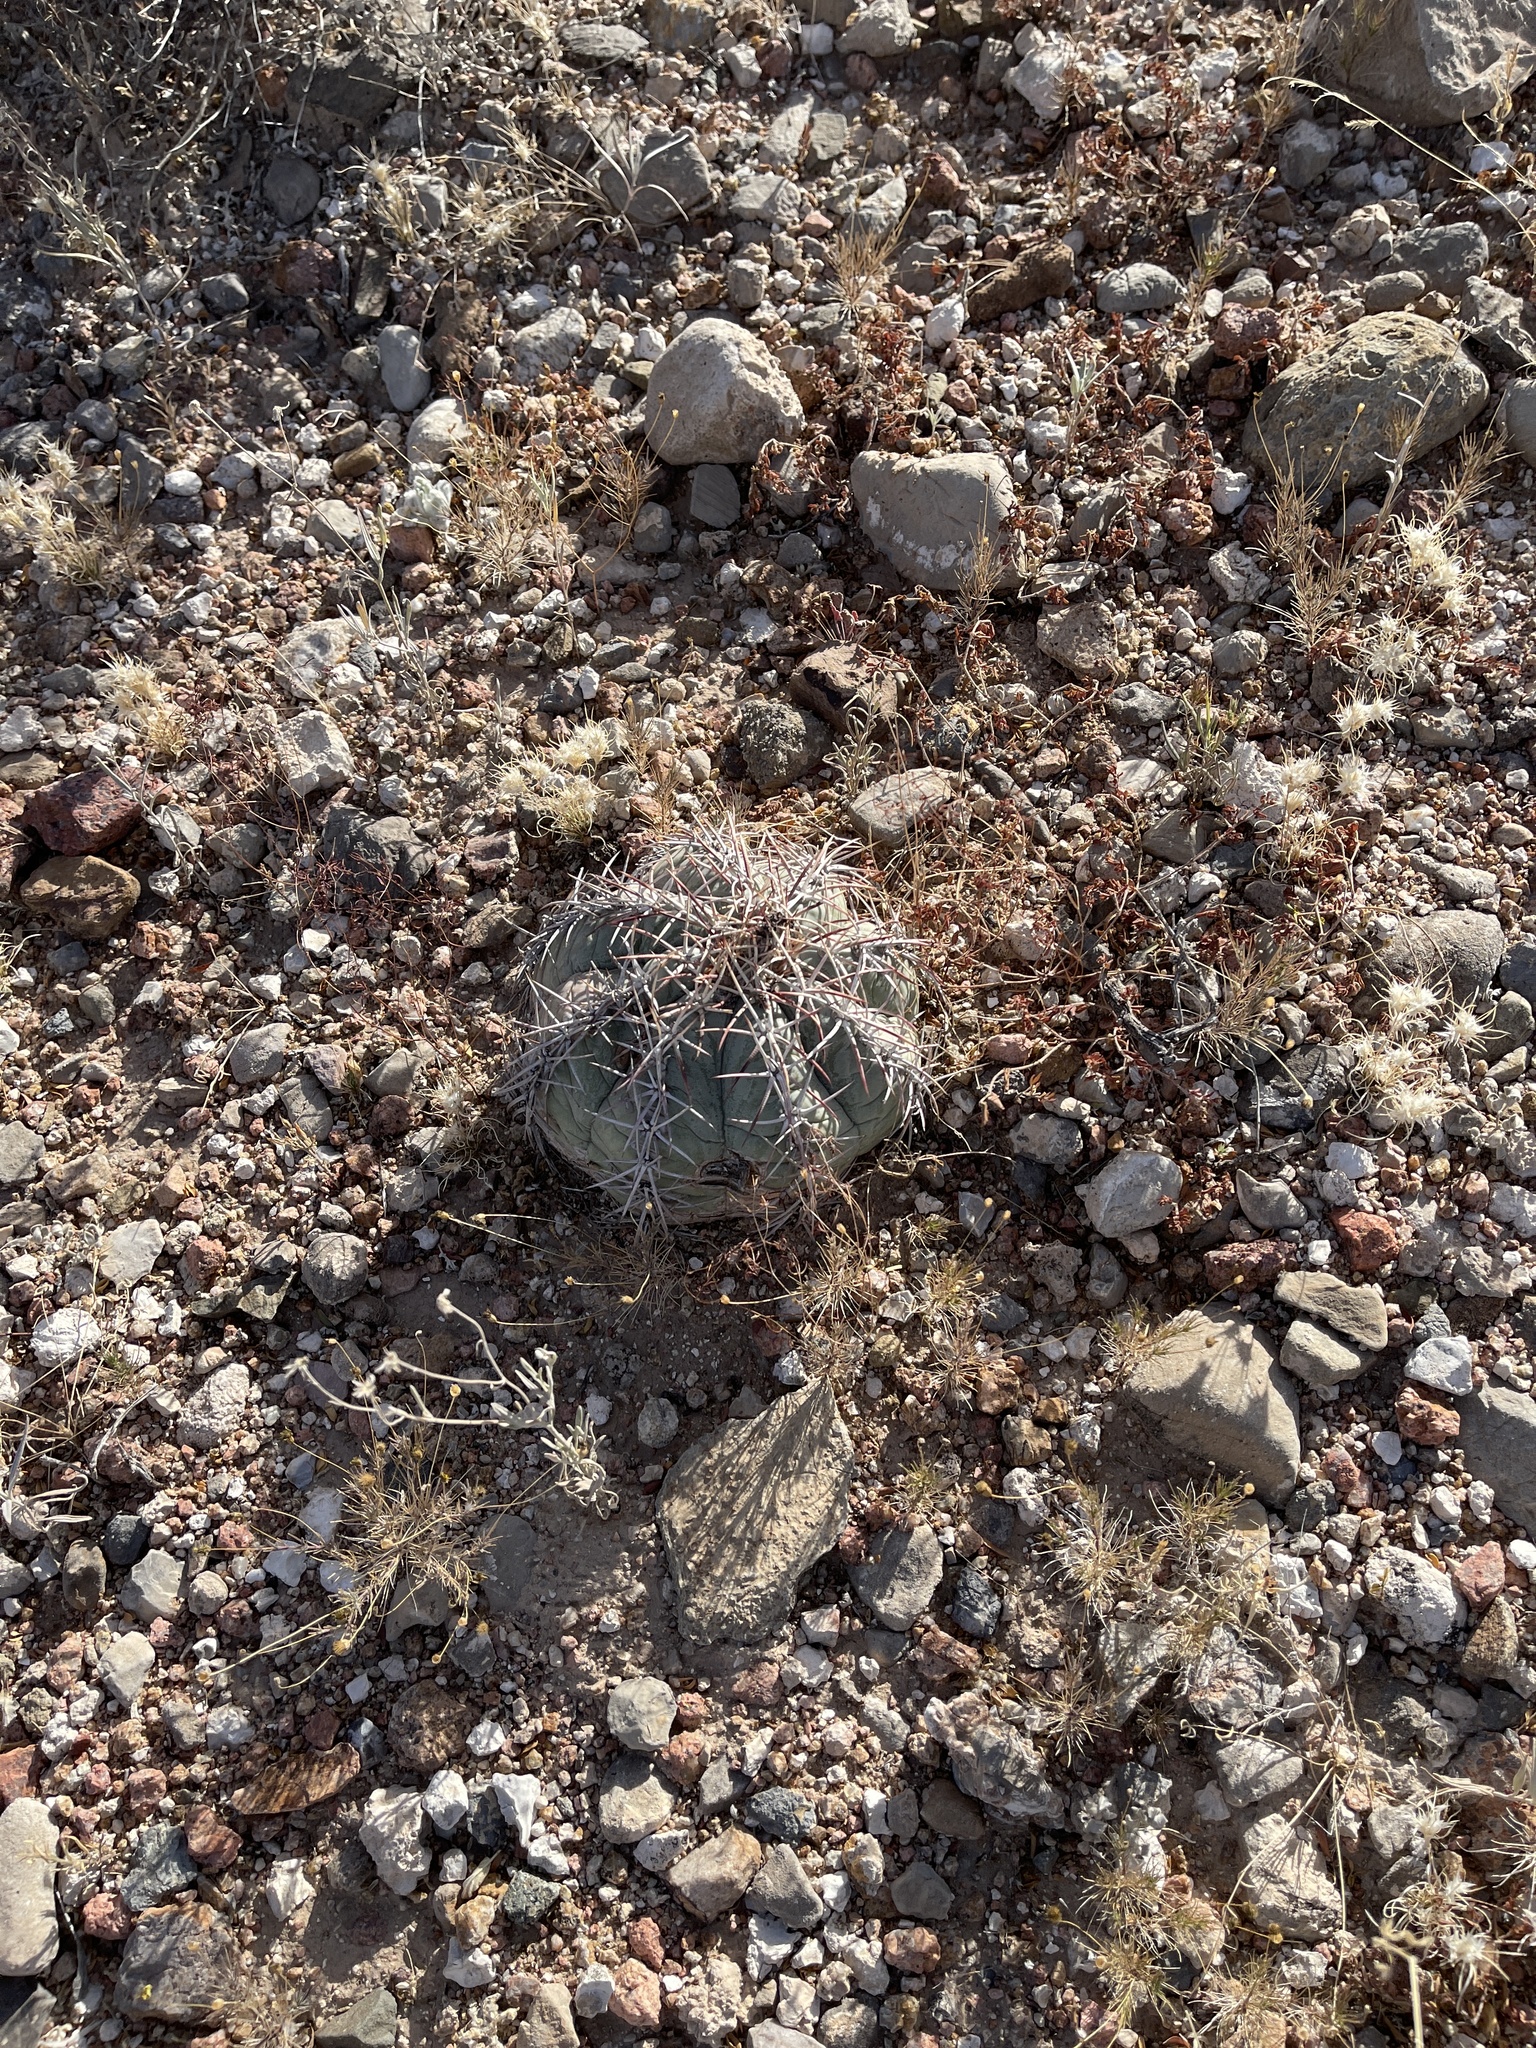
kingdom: Plantae
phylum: Tracheophyta
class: Magnoliopsida
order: Caryophyllales
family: Cactaceae
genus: Echinocactus
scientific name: Echinocactus horizonthalonius
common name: Devilshead
